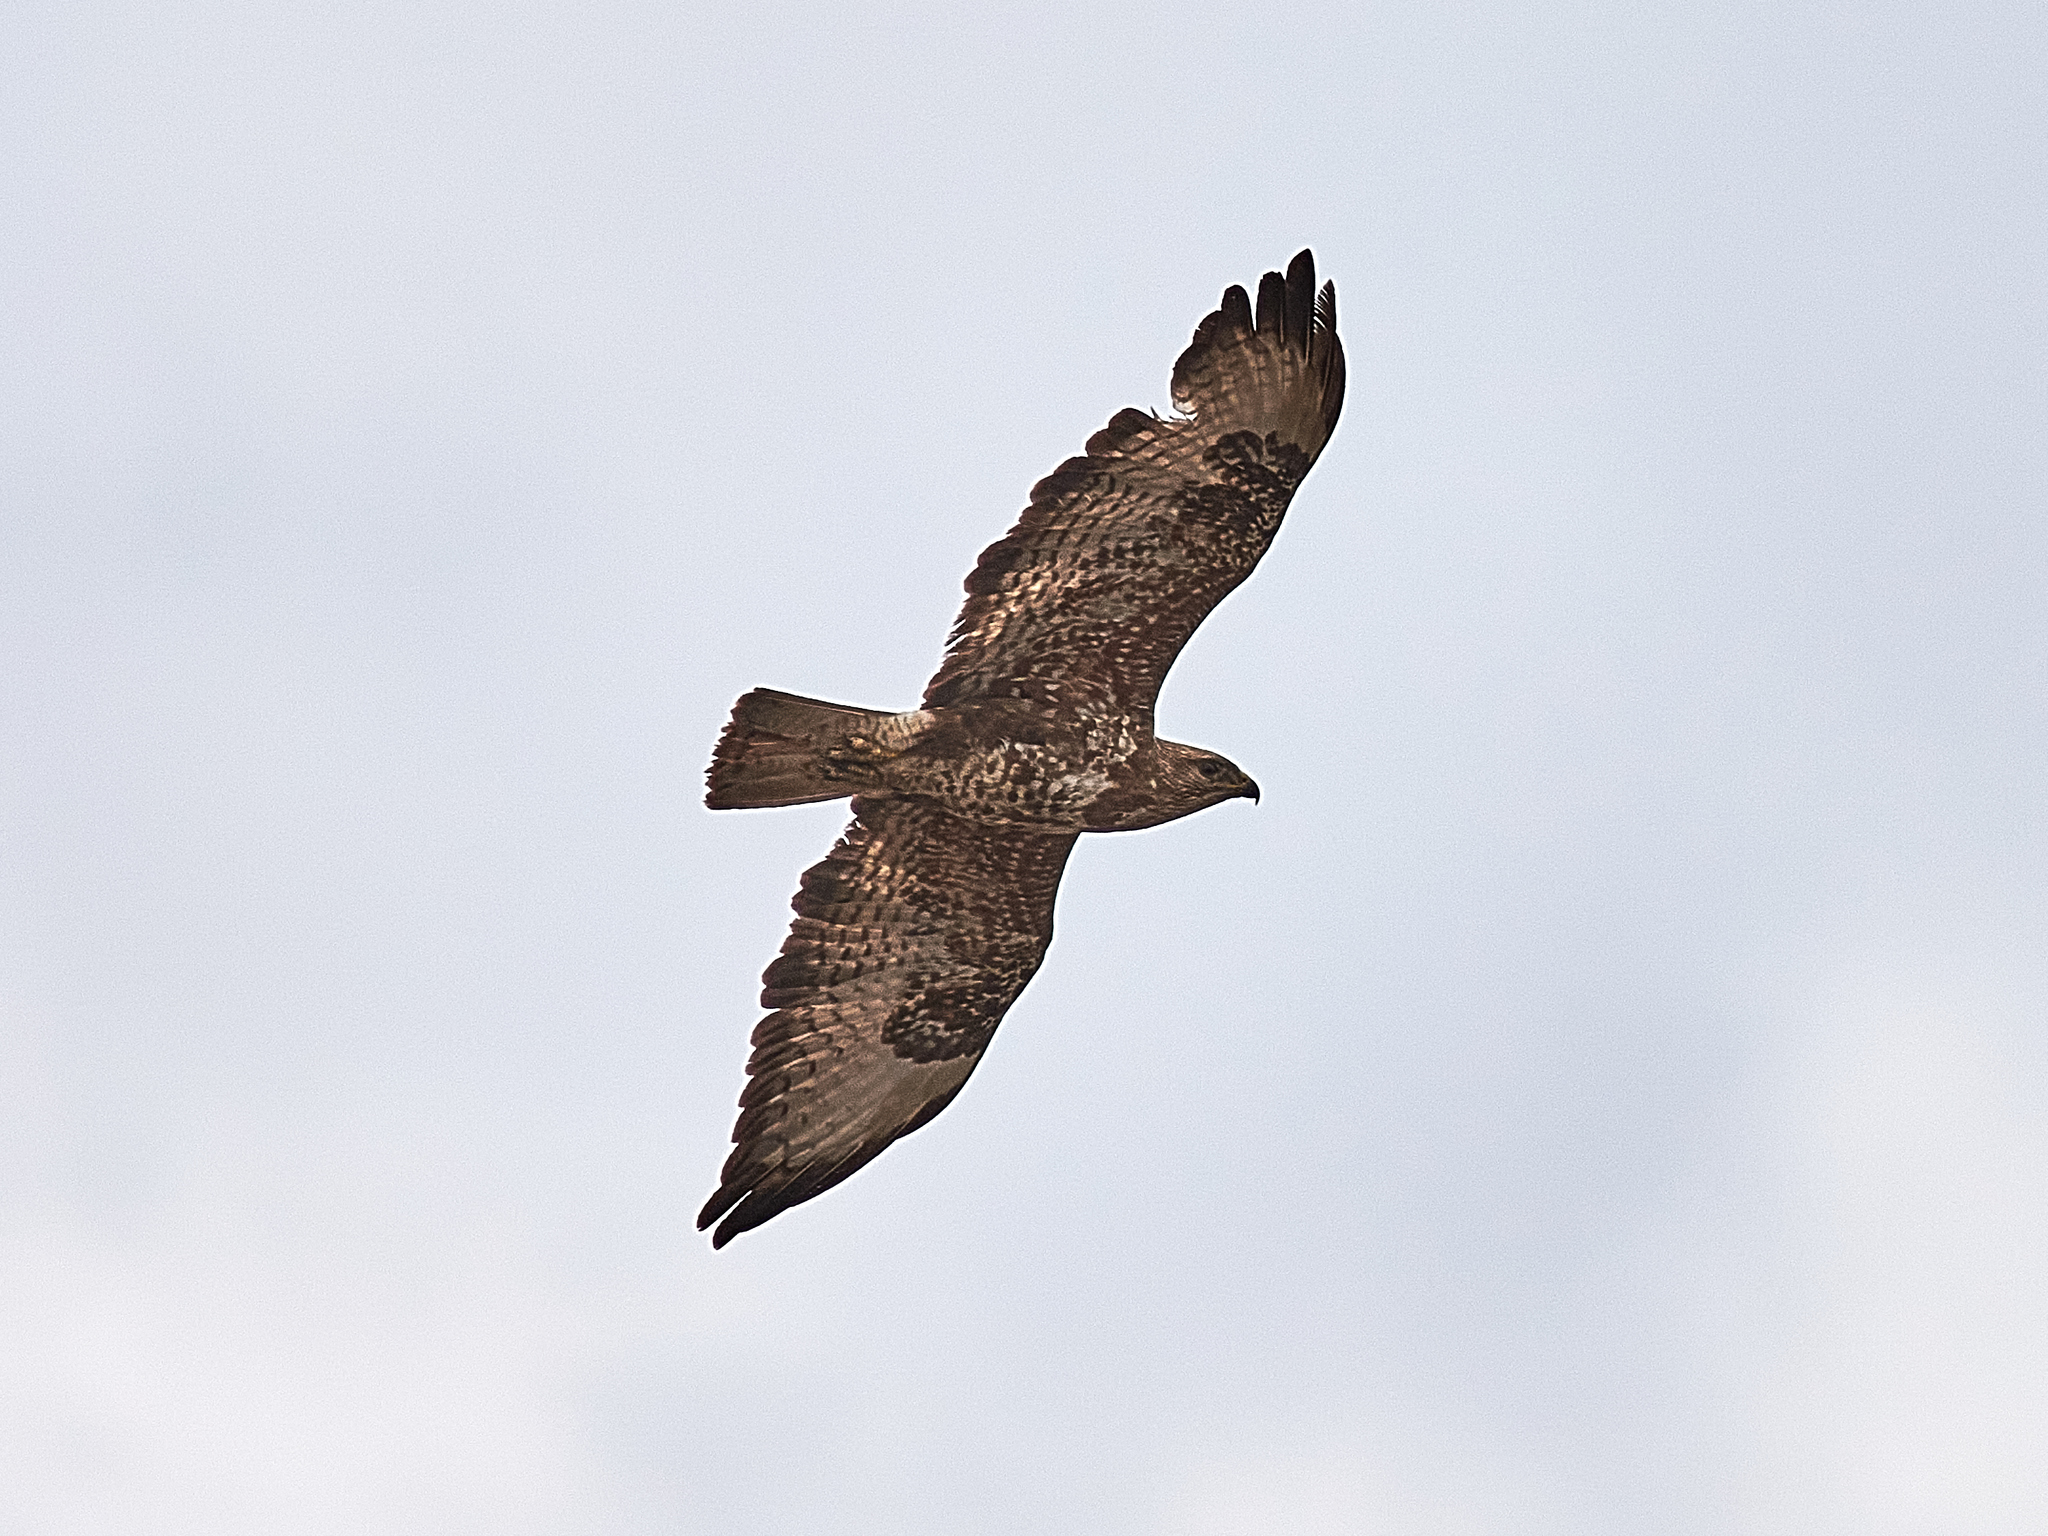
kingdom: Animalia
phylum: Chordata
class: Aves
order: Accipitriformes
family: Accipitridae
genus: Buteo
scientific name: Buteo buteo
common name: Common buzzard
